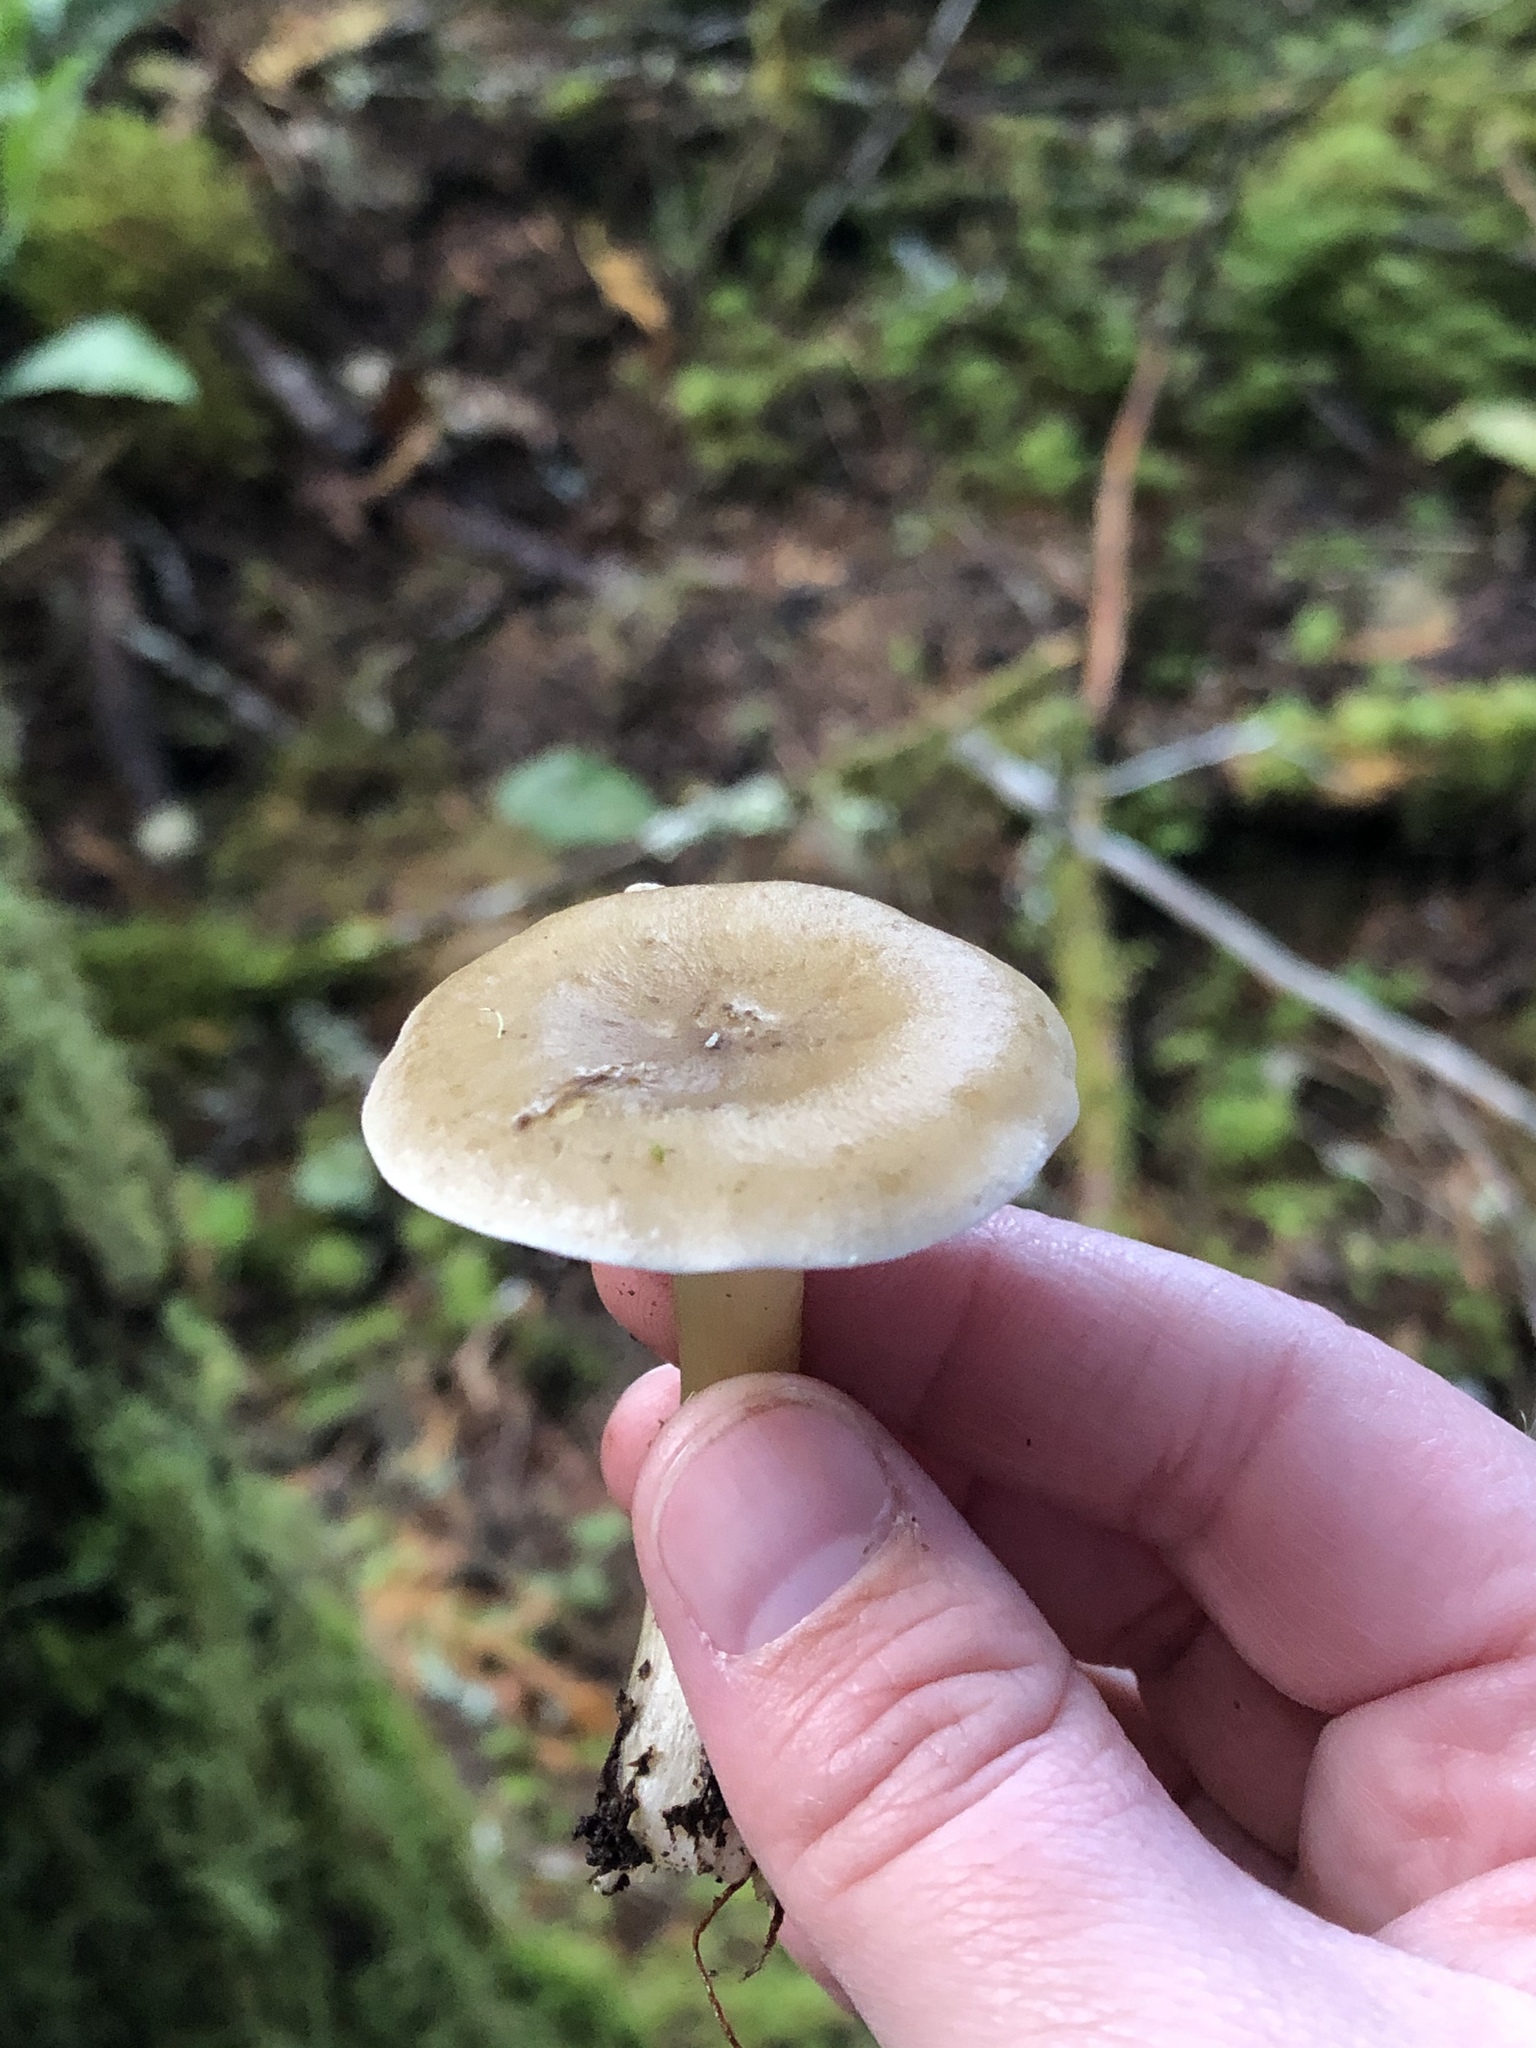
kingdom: Fungi
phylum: Basidiomycota
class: Agaricomycetes
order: Agaricales
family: Hygrophoraceae
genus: Ampulloclitocybe
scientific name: Ampulloclitocybe clavipes
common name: Club foot
